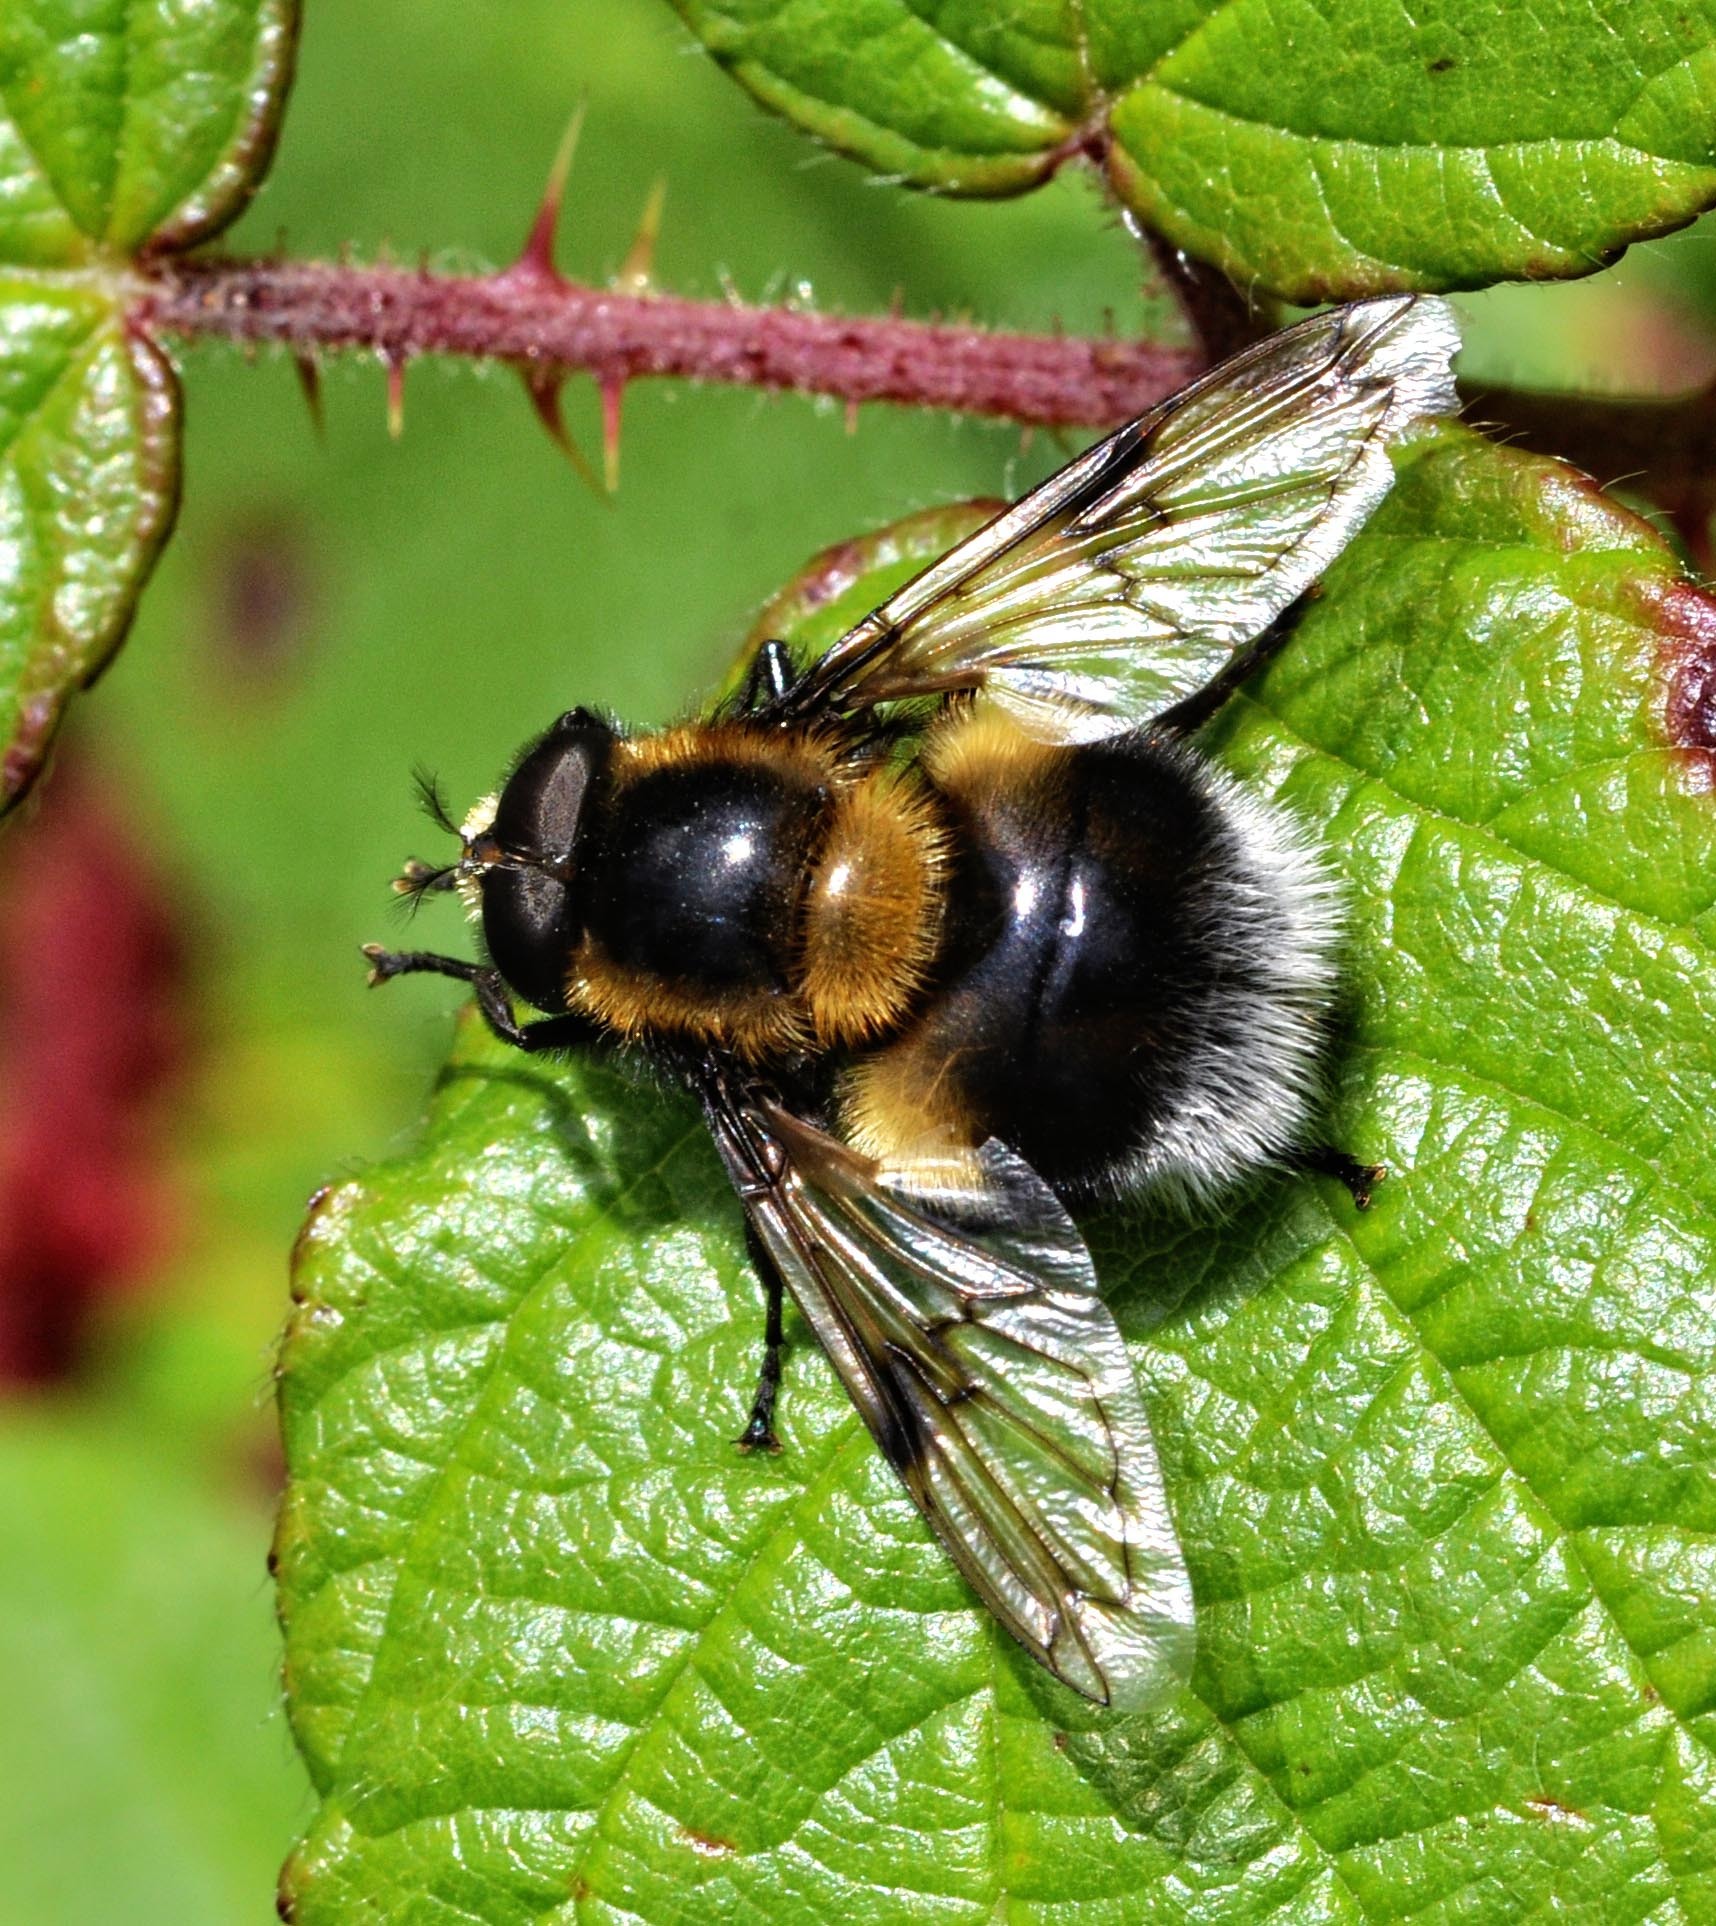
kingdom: Animalia
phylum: Arthropoda
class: Insecta
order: Diptera
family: Syrphidae
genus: Volucella
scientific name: Volucella bombylans
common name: Bumble bee hover fly
